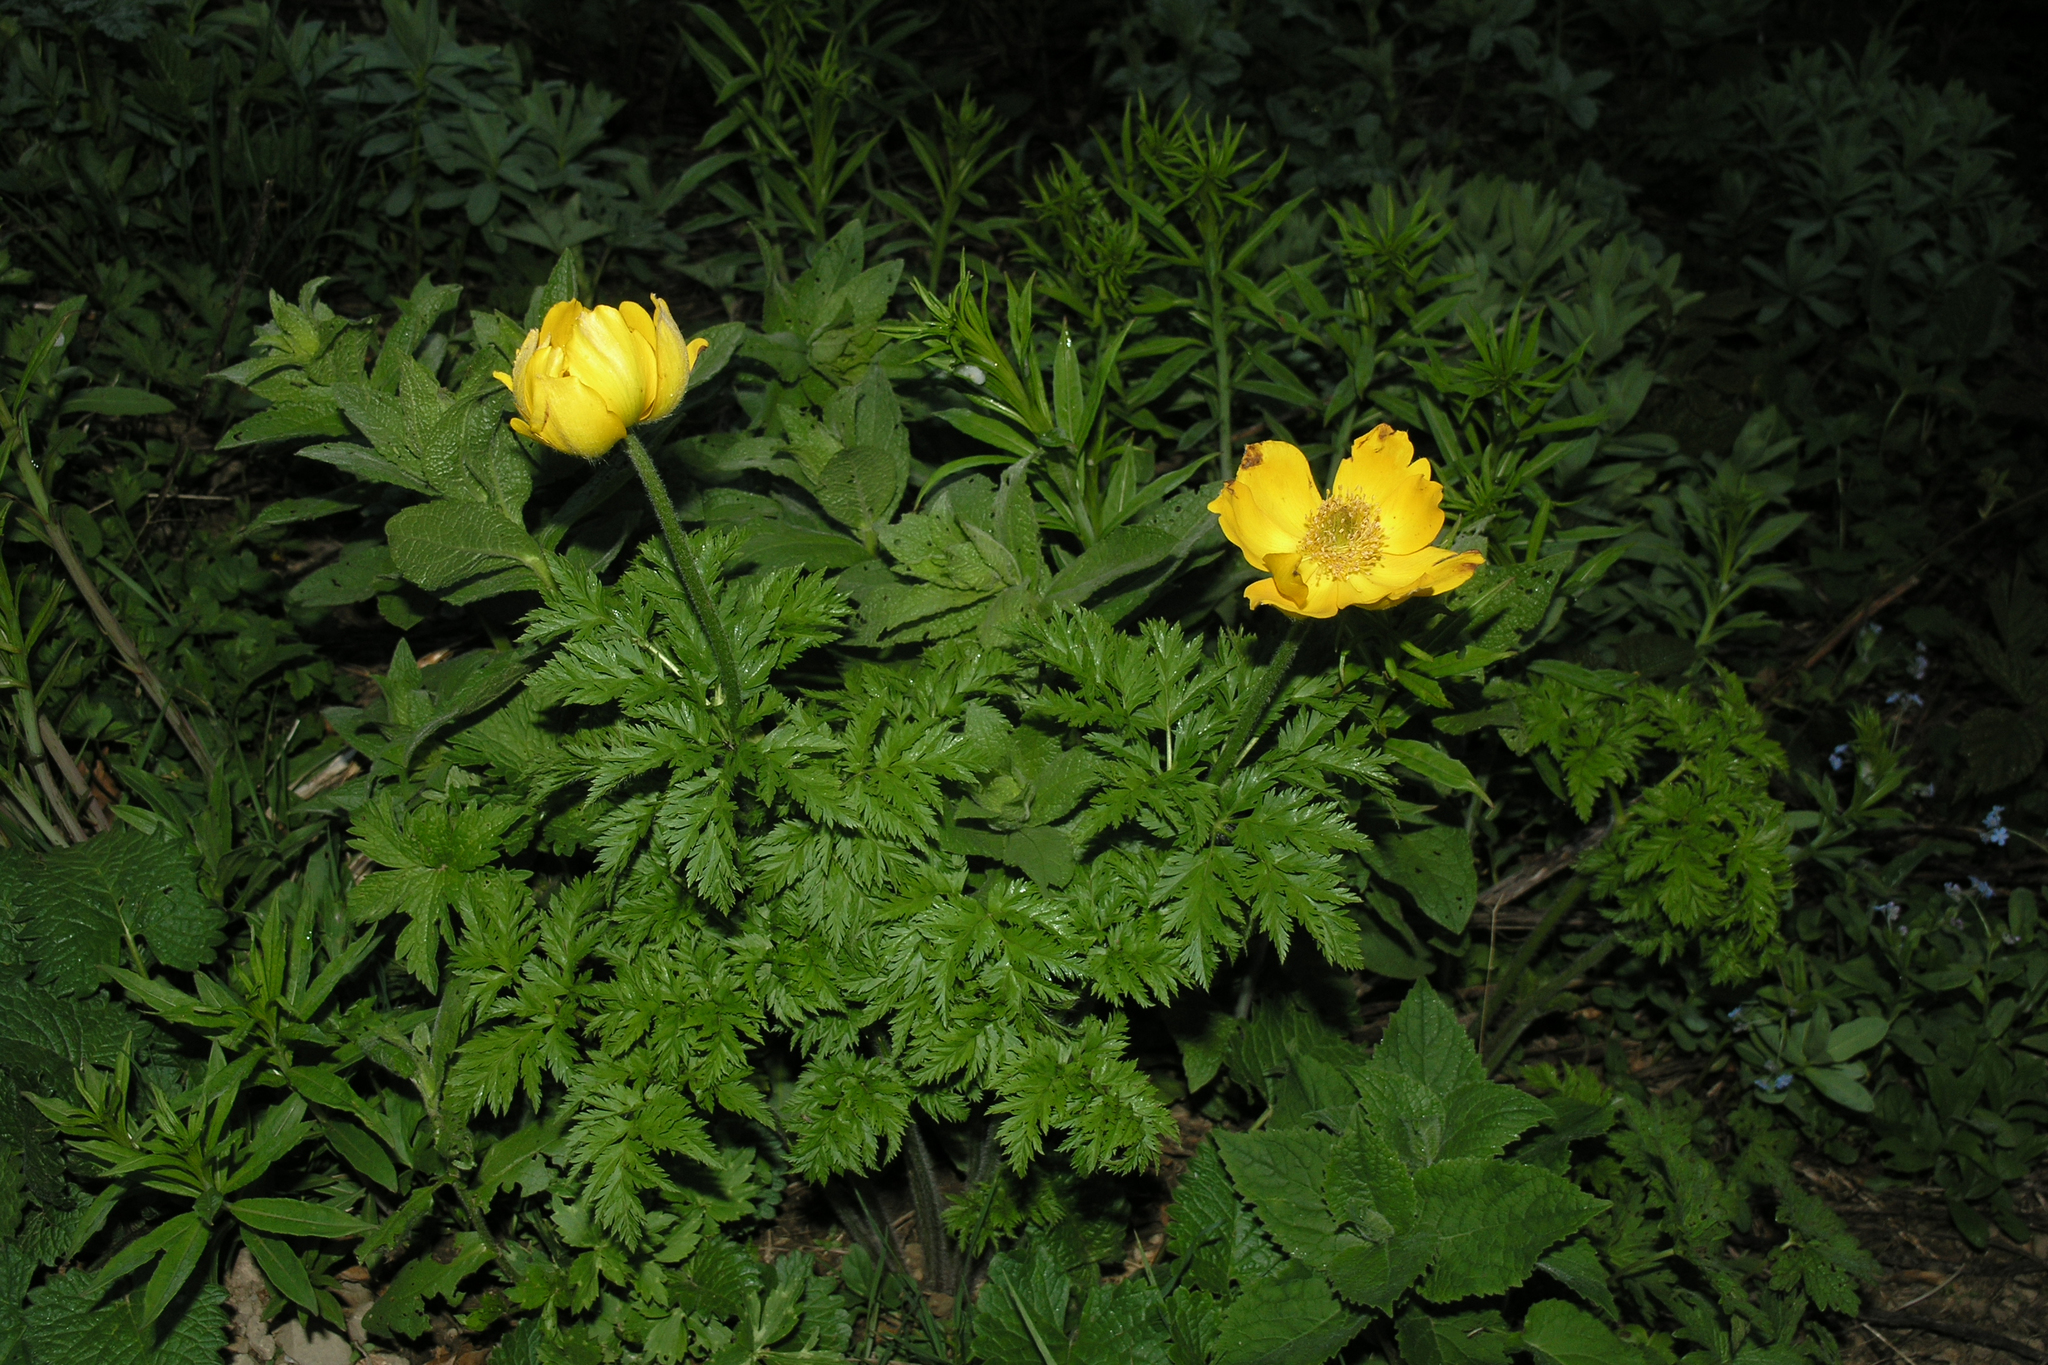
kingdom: Plantae
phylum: Tracheophyta
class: Magnoliopsida
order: Ranunculales
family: Ranunculaceae
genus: Trollius
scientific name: Trollius ranunculinus
